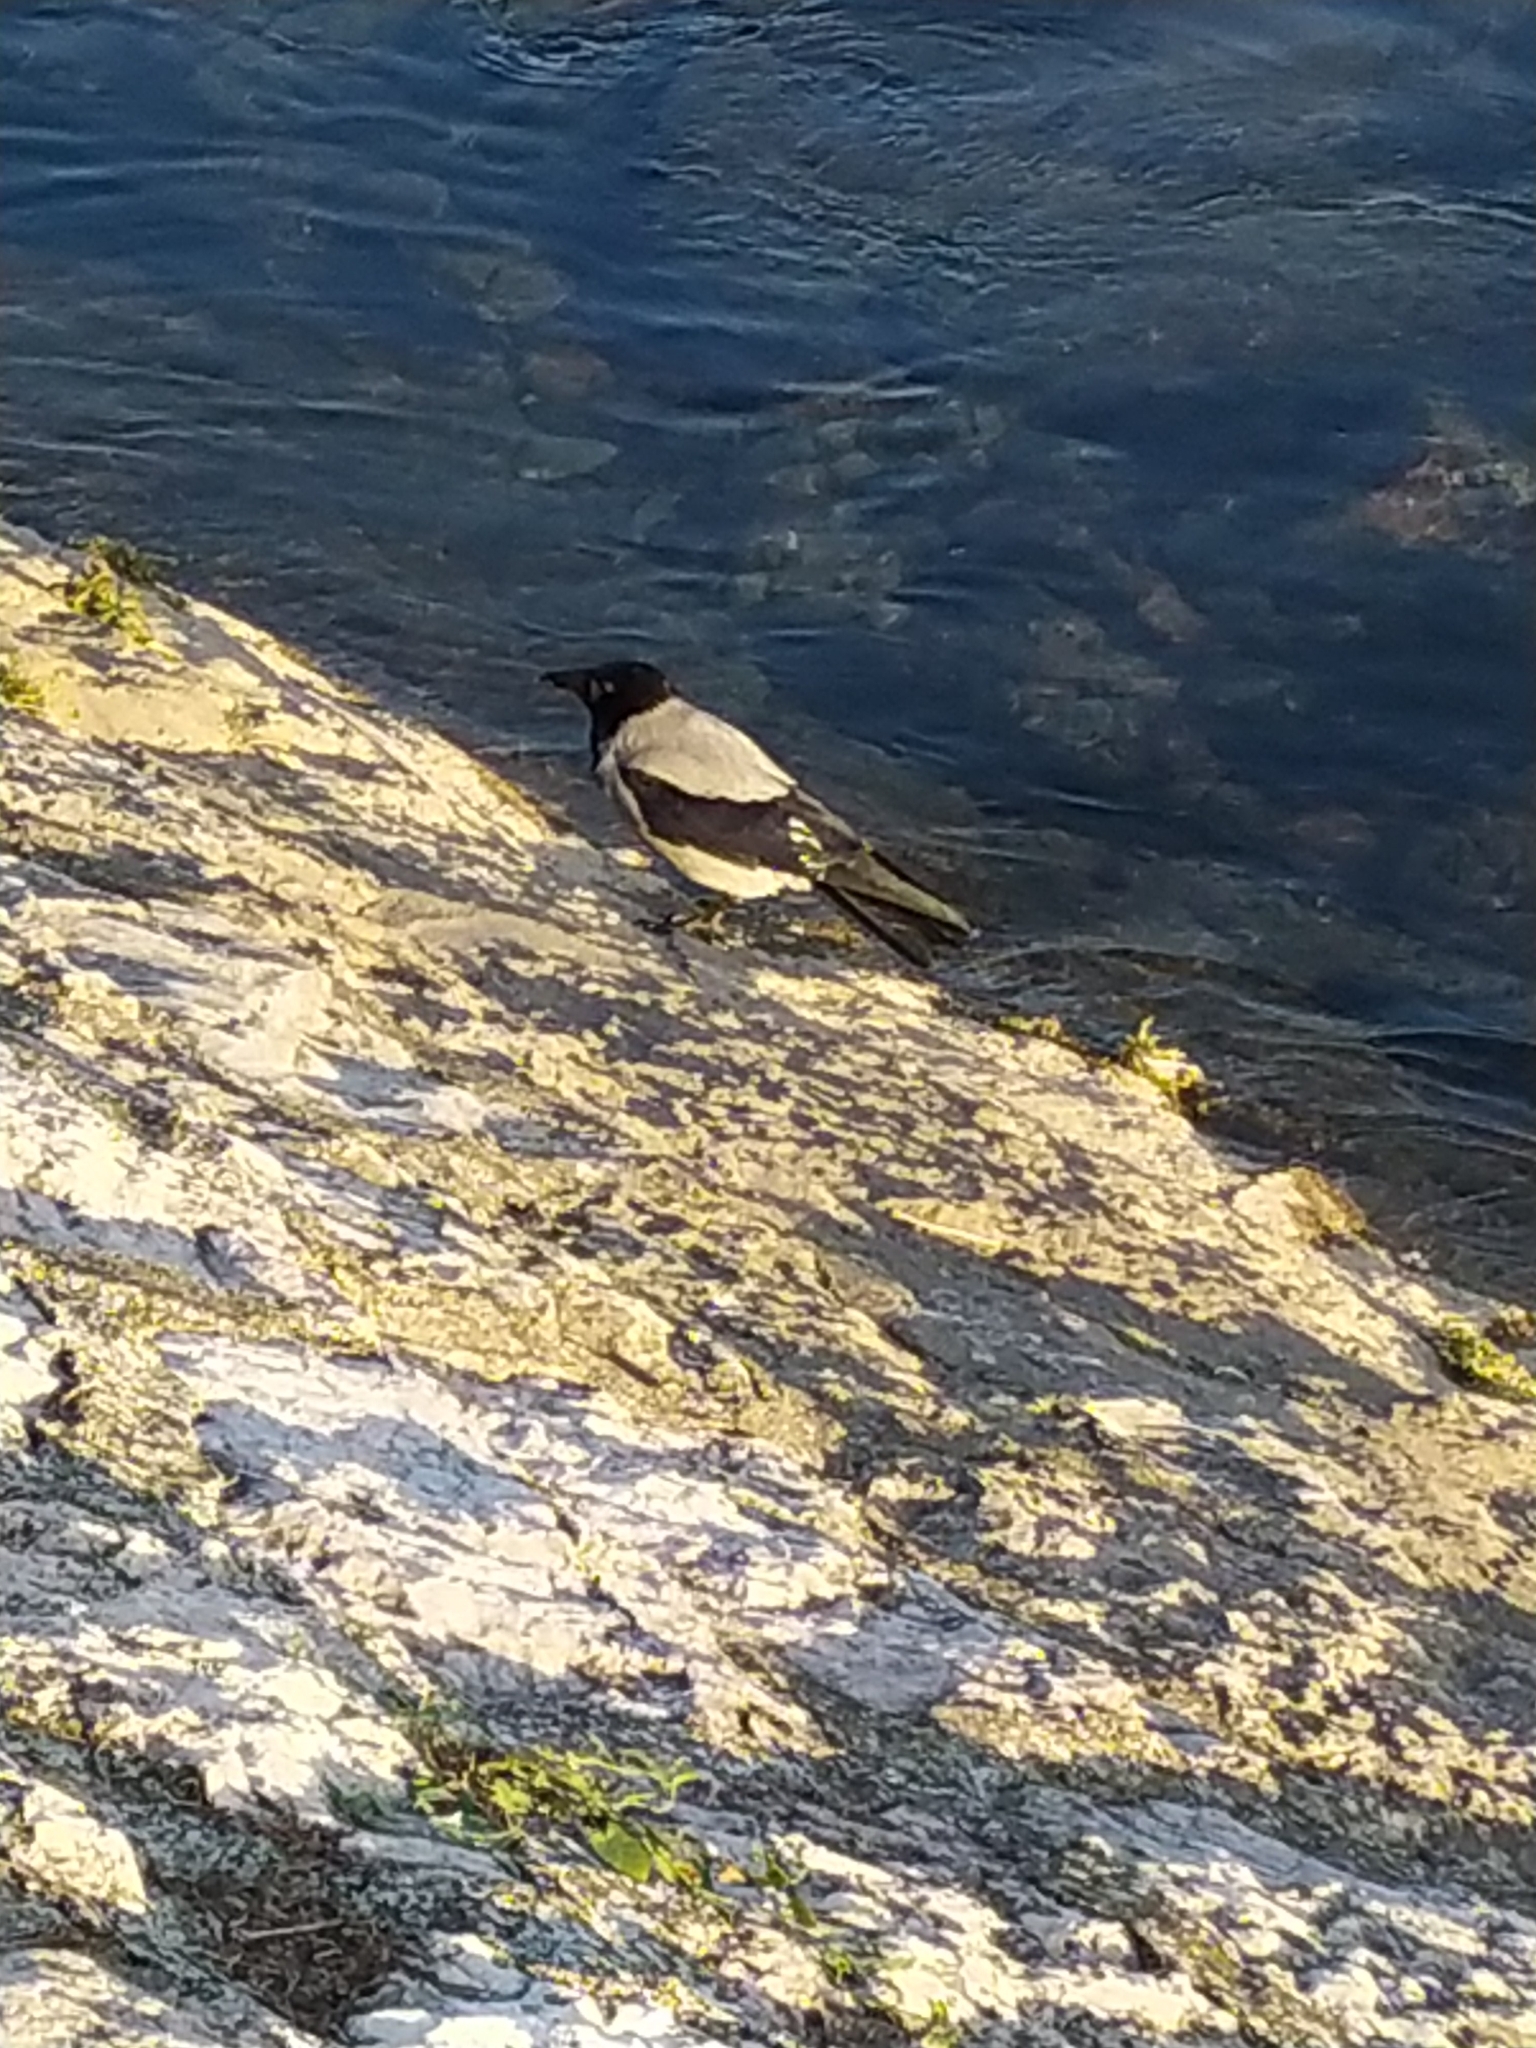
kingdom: Animalia
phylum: Chordata
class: Aves
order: Passeriformes
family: Corvidae
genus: Corvus
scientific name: Corvus cornix
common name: Hooded crow
